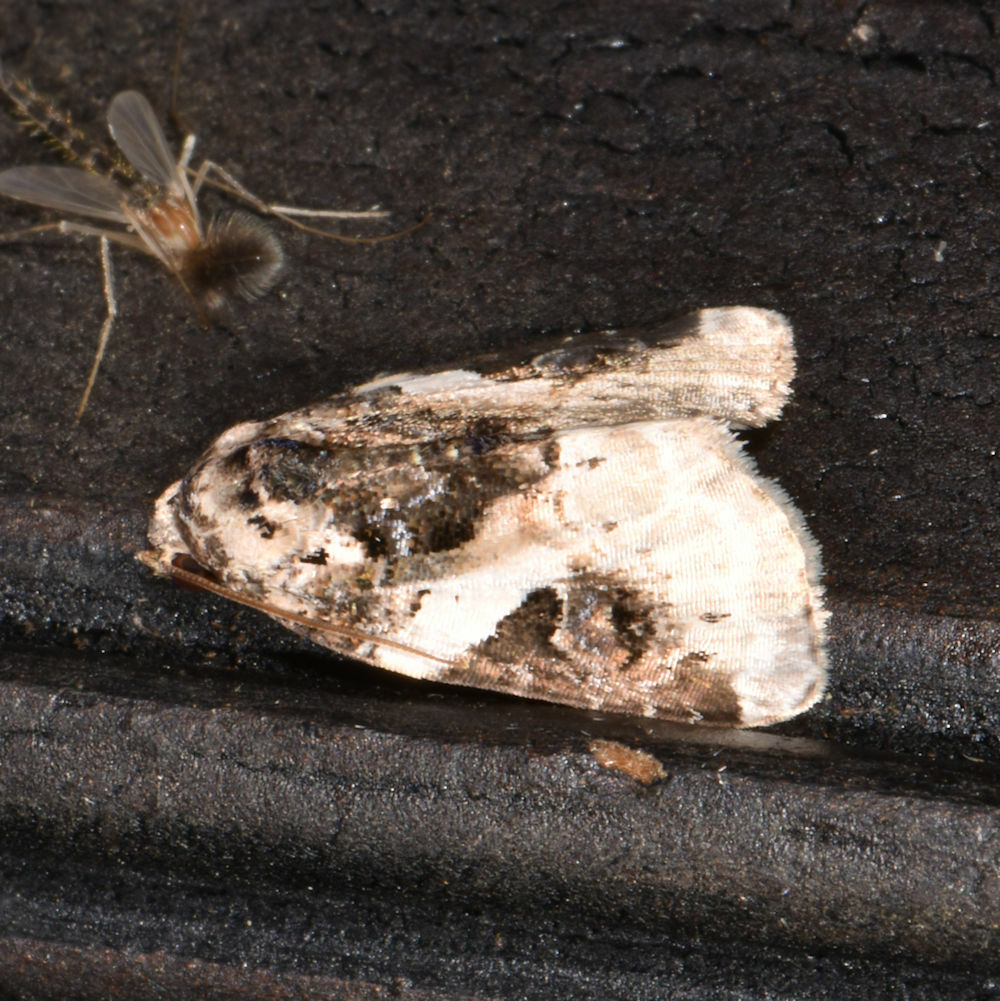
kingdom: Animalia
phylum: Arthropoda
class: Insecta
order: Lepidoptera
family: Noctuidae
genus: Pseudeustrotia
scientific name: Pseudeustrotia carneola
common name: Pink-barred lithacodia moth
